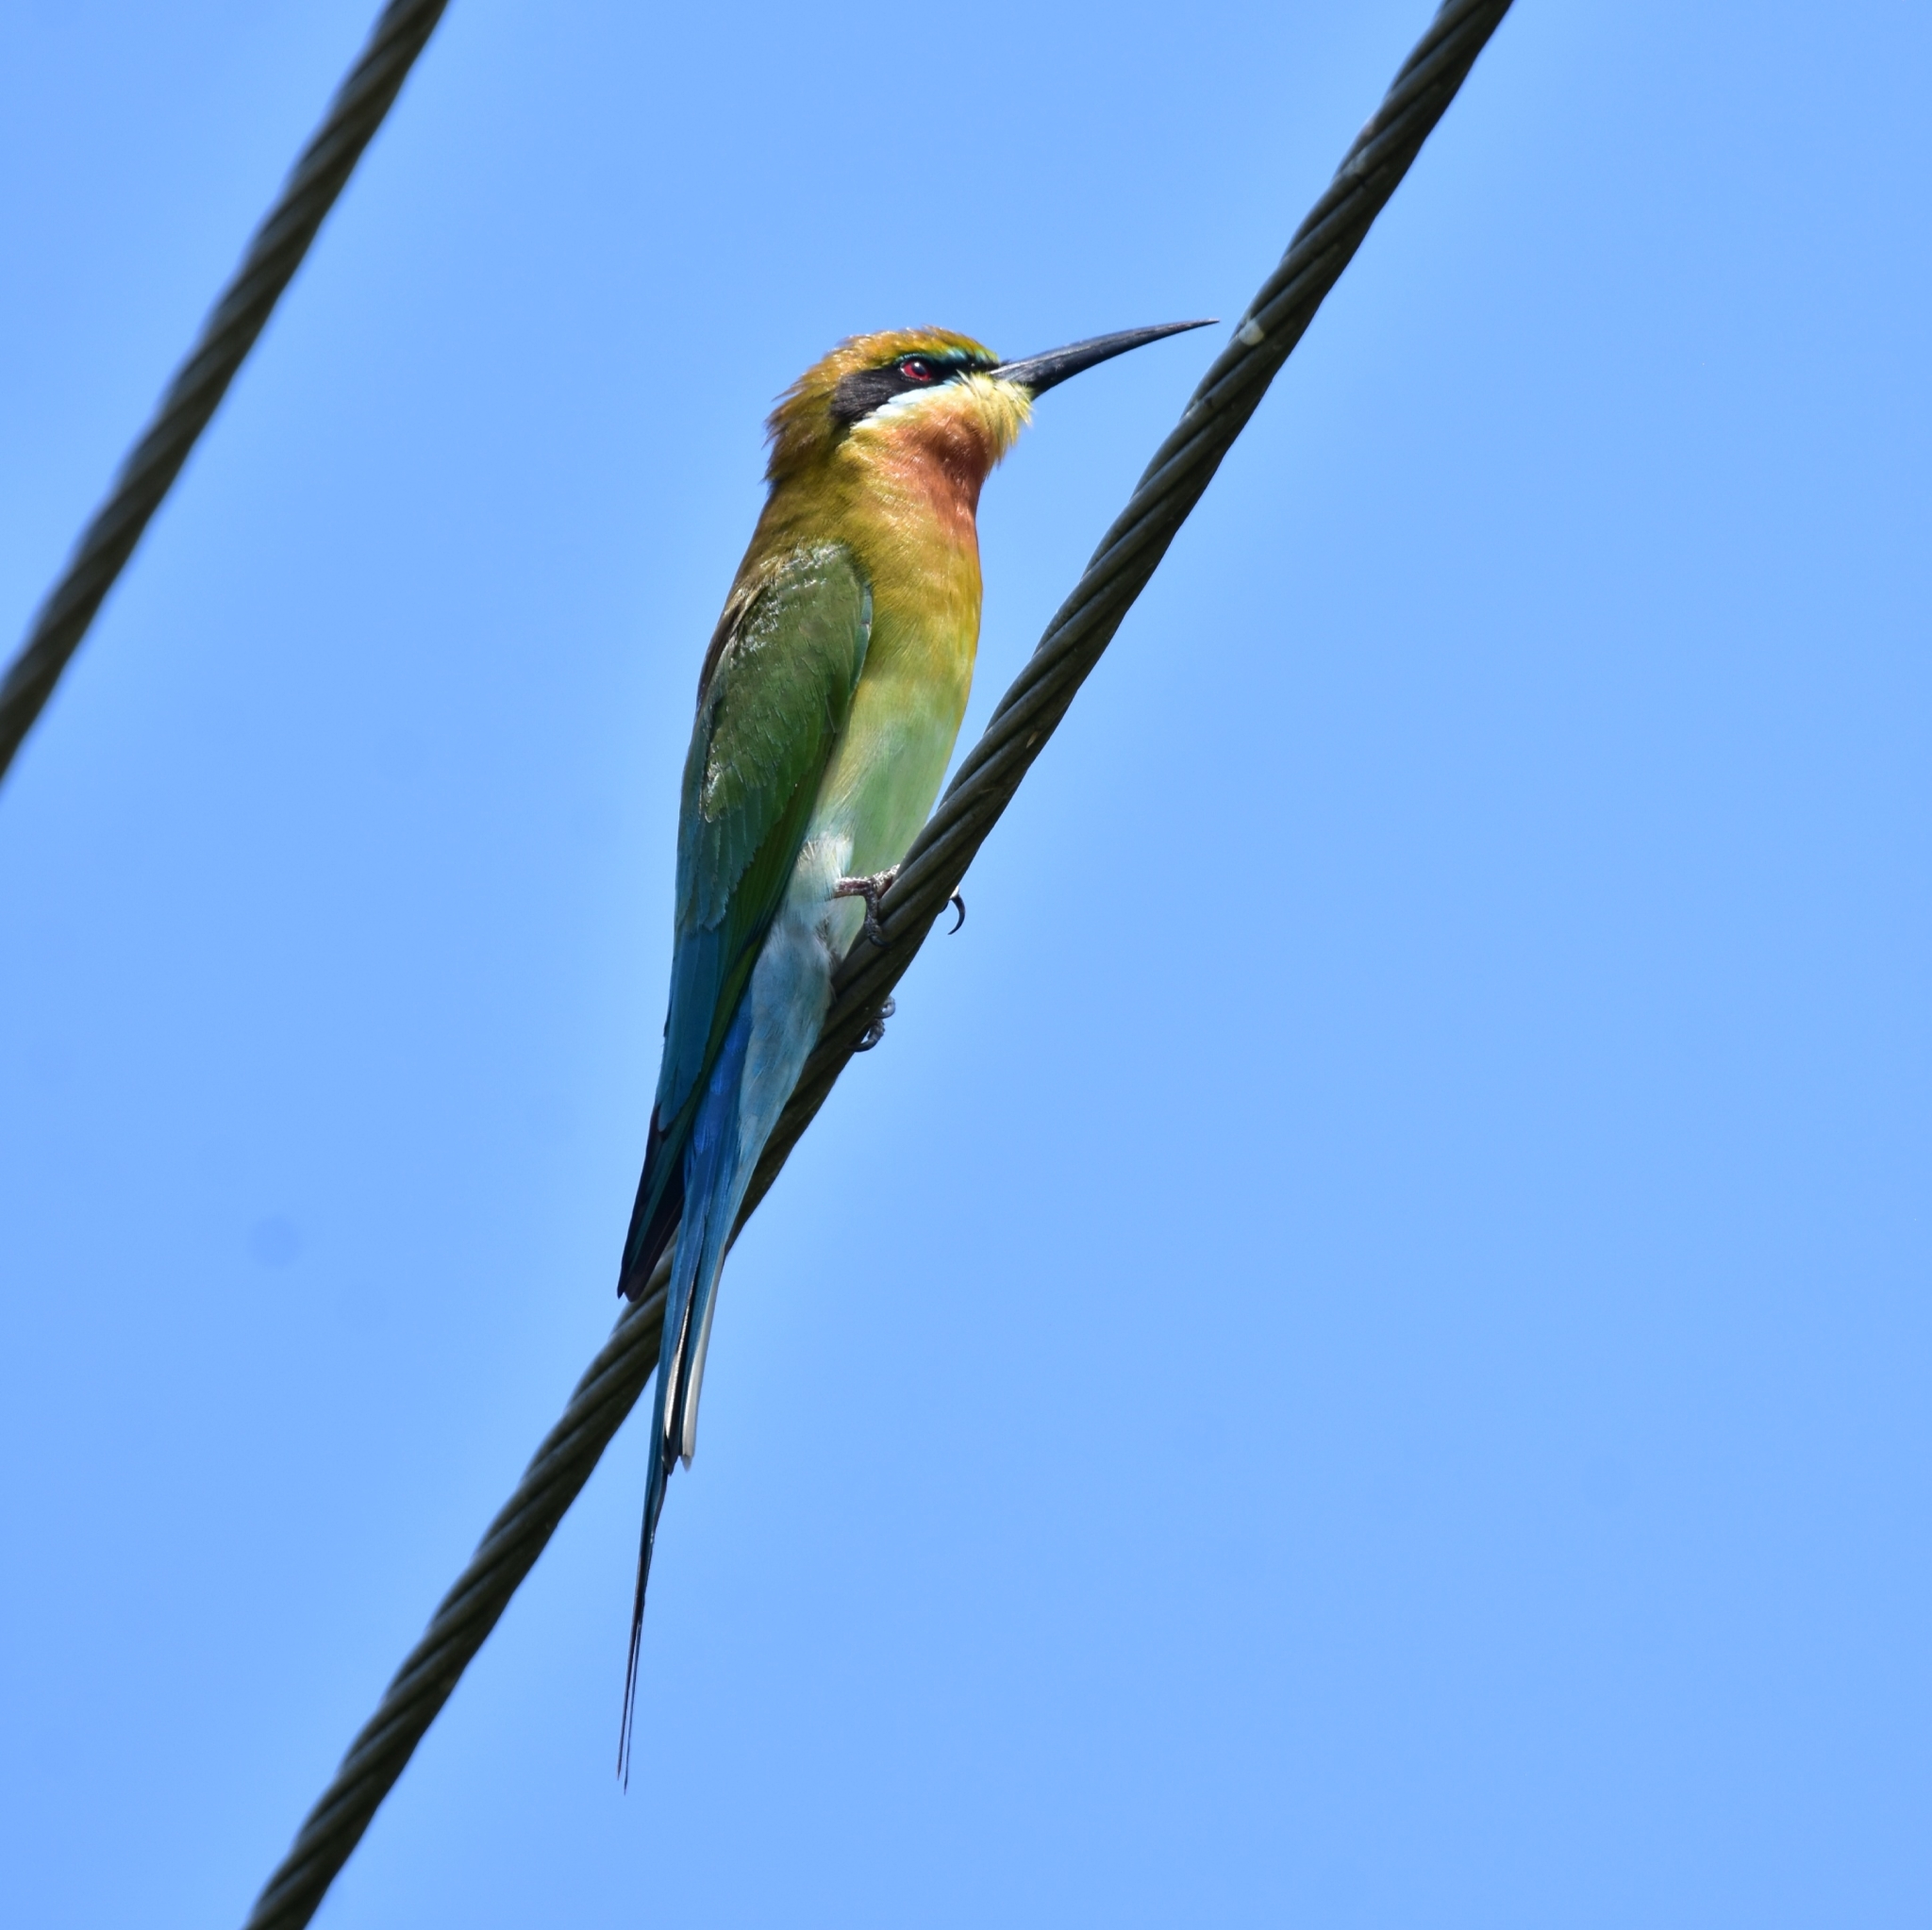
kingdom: Animalia
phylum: Chordata
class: Aves
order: Coraciiformes
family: Meropidae
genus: Merops
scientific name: Merops philippinus
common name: Blue-tailed bee-eater
